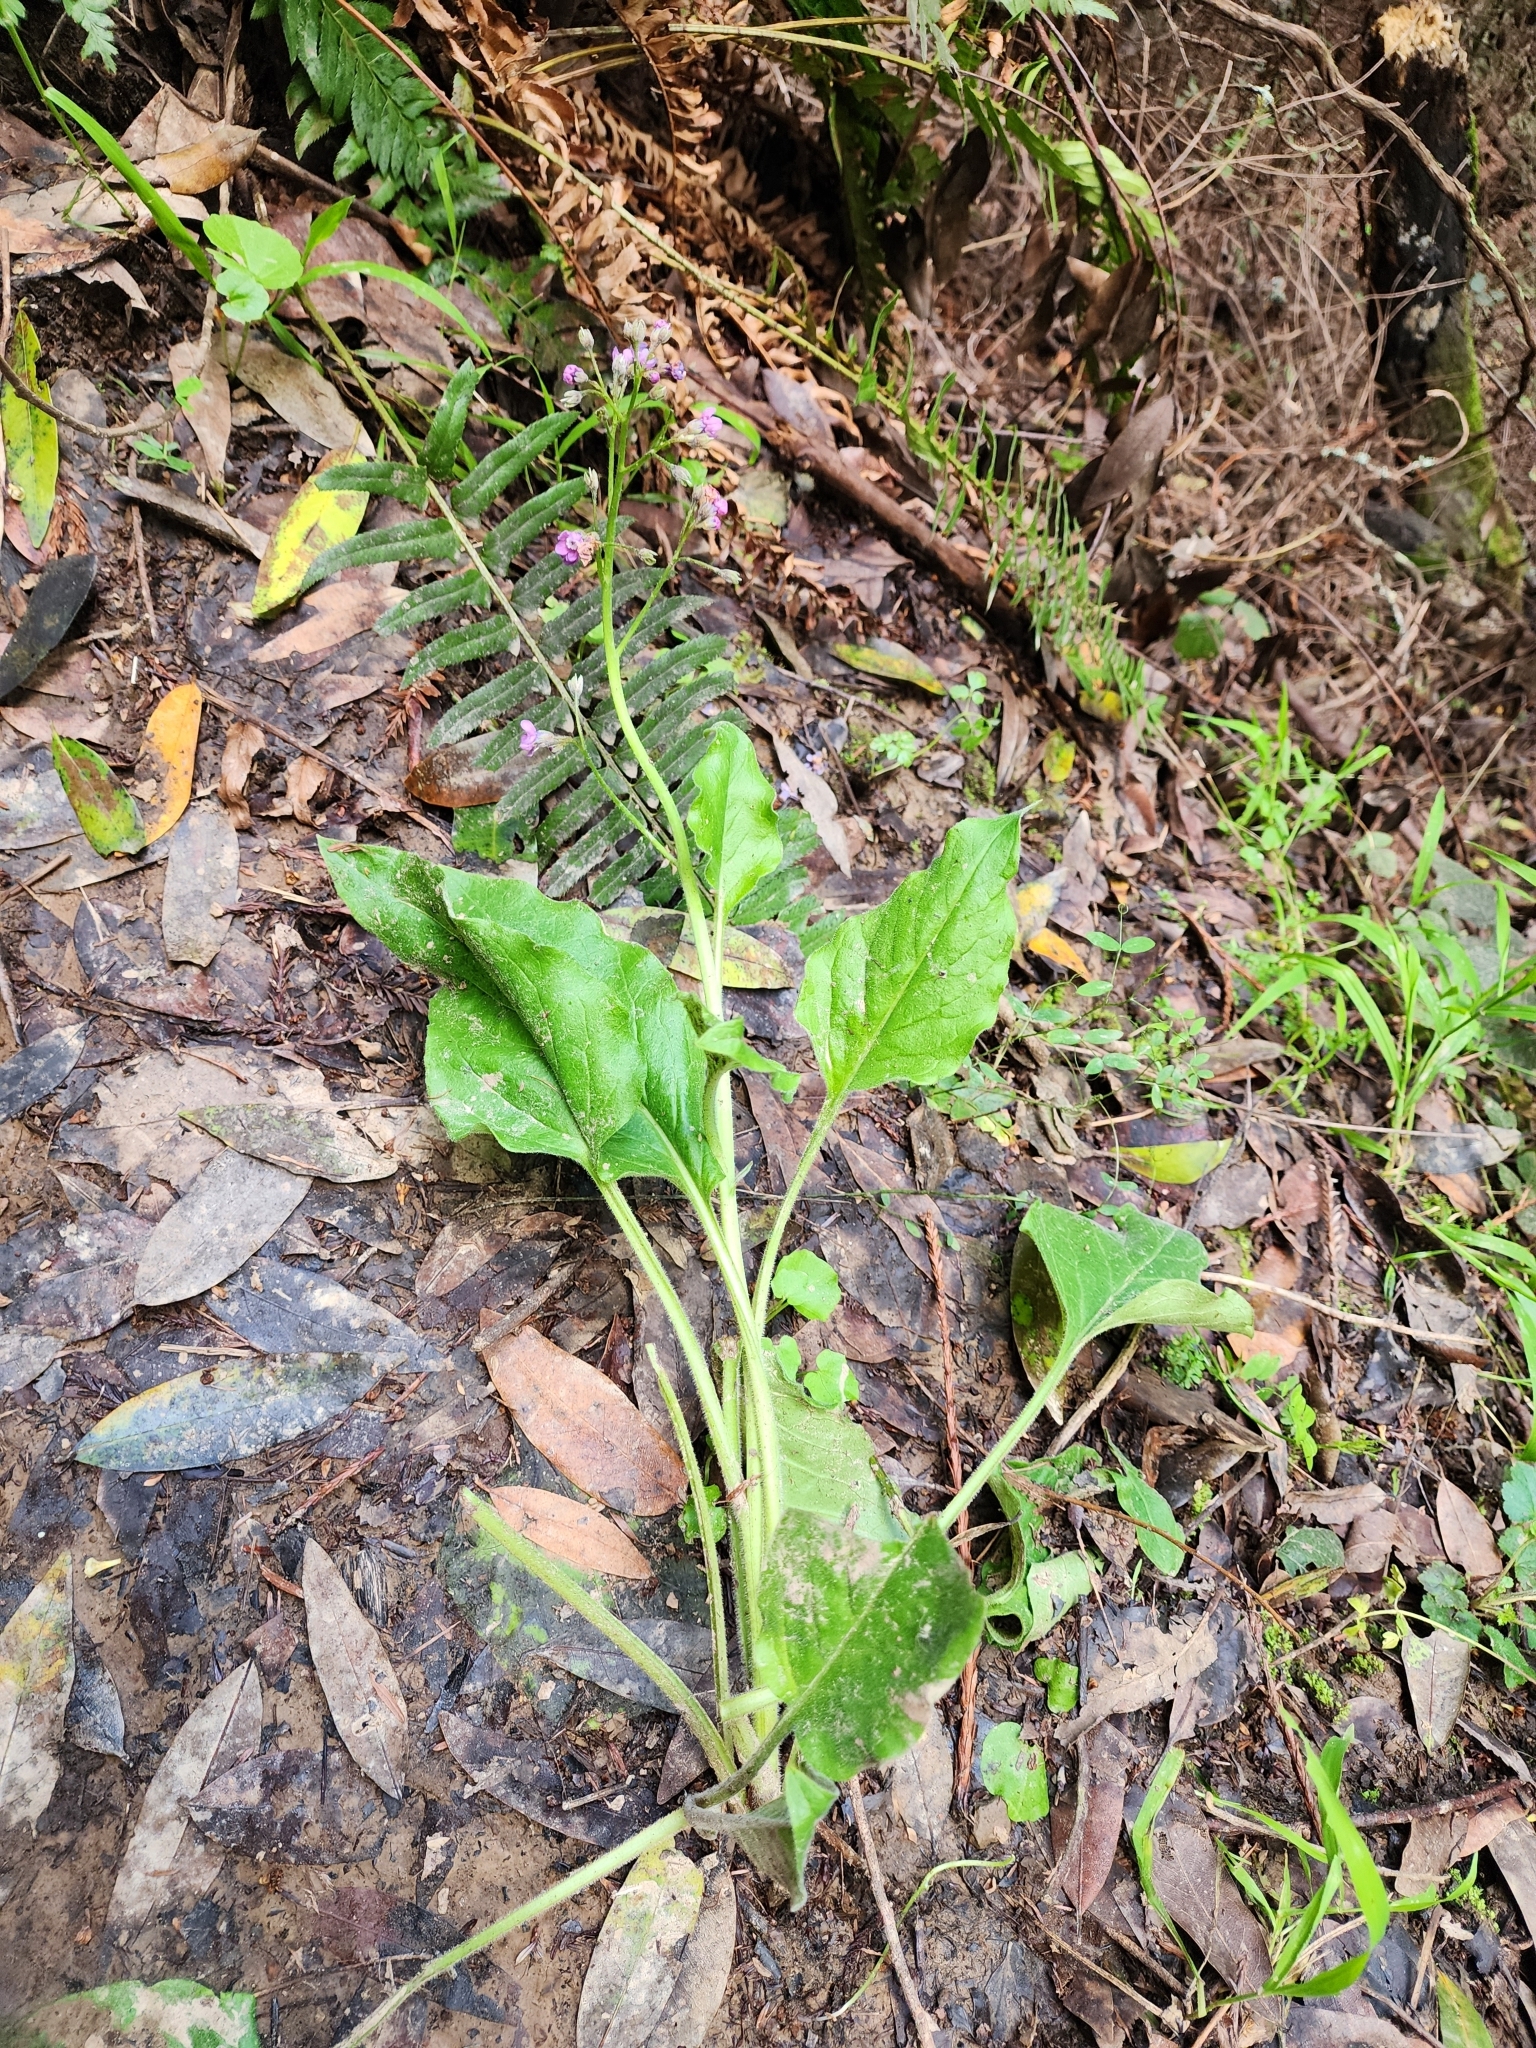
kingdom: Plantae
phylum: Tracheophyta
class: Magnoliopsida
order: Boraginales
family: Boraginaceae
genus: Adelinia
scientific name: Adelinia grande
